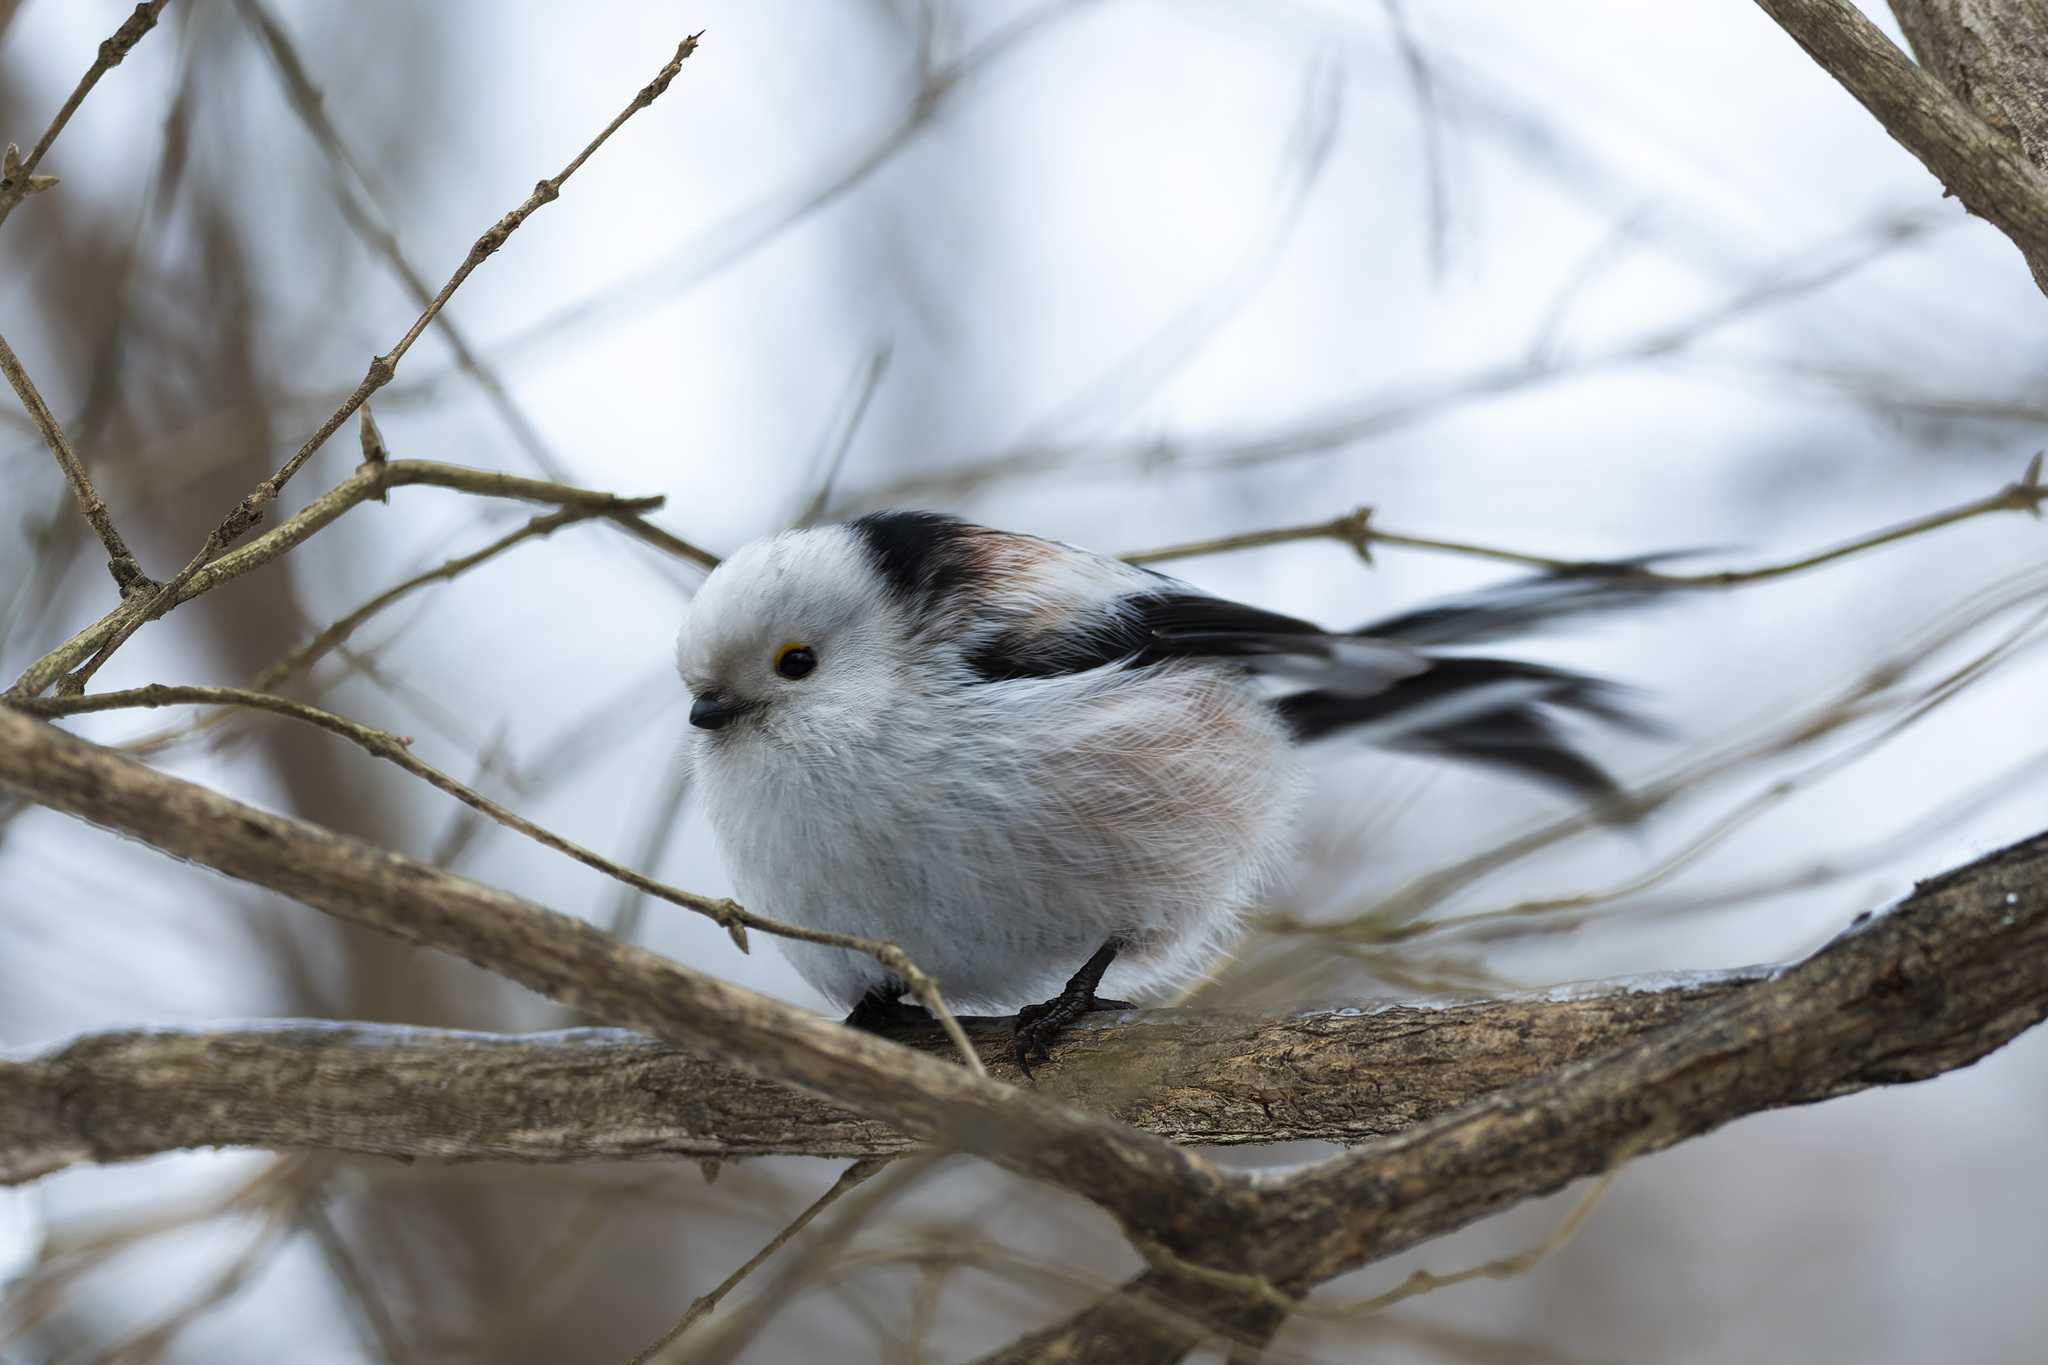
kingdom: Animalia
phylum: Chordata
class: Aves
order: Passeriformes
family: Aegithalidae
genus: Aegithalos
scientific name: Aegithalos caudatus
